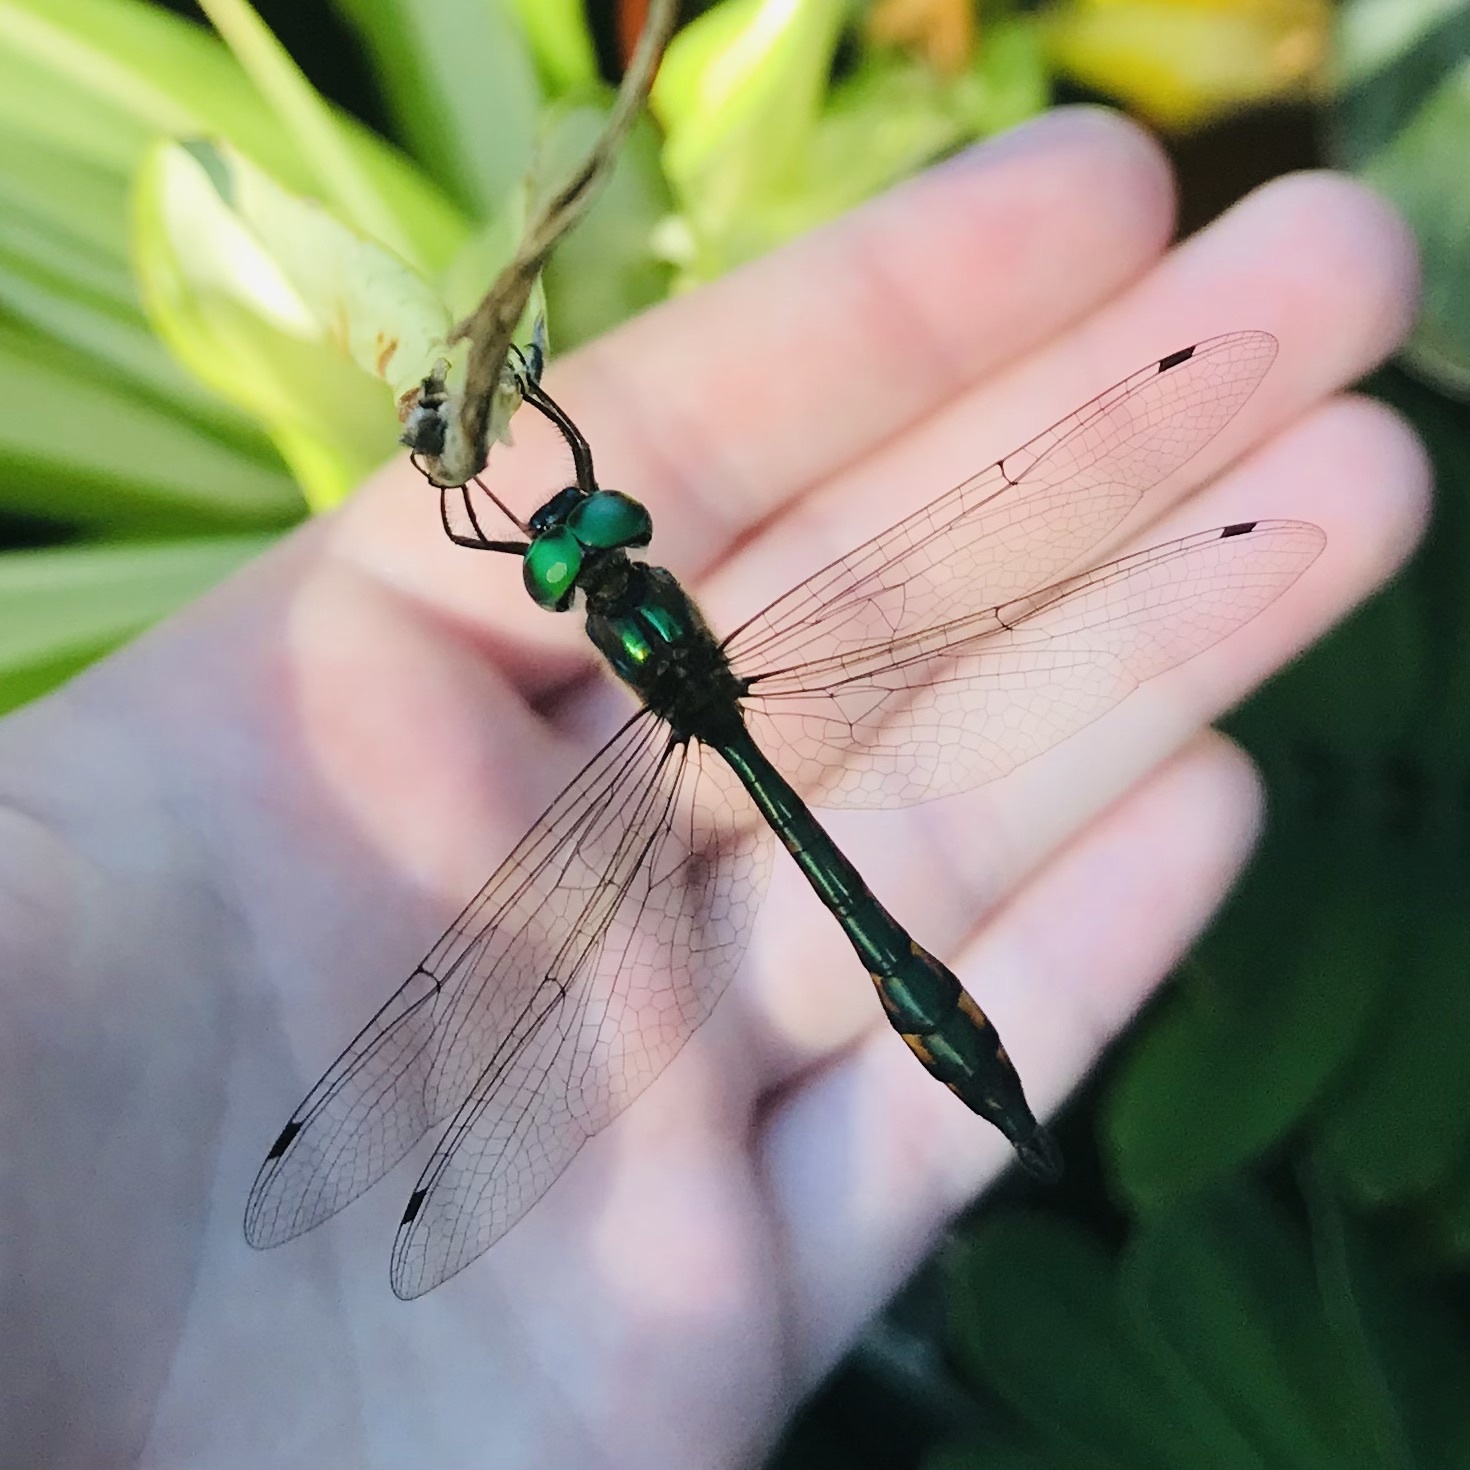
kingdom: Animalia
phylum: Arthropoda
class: Insecta
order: Odonata
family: Corduliidae
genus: Hemicordulia
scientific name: Hemicordulia continentalis
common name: Fat-bellied emerald
